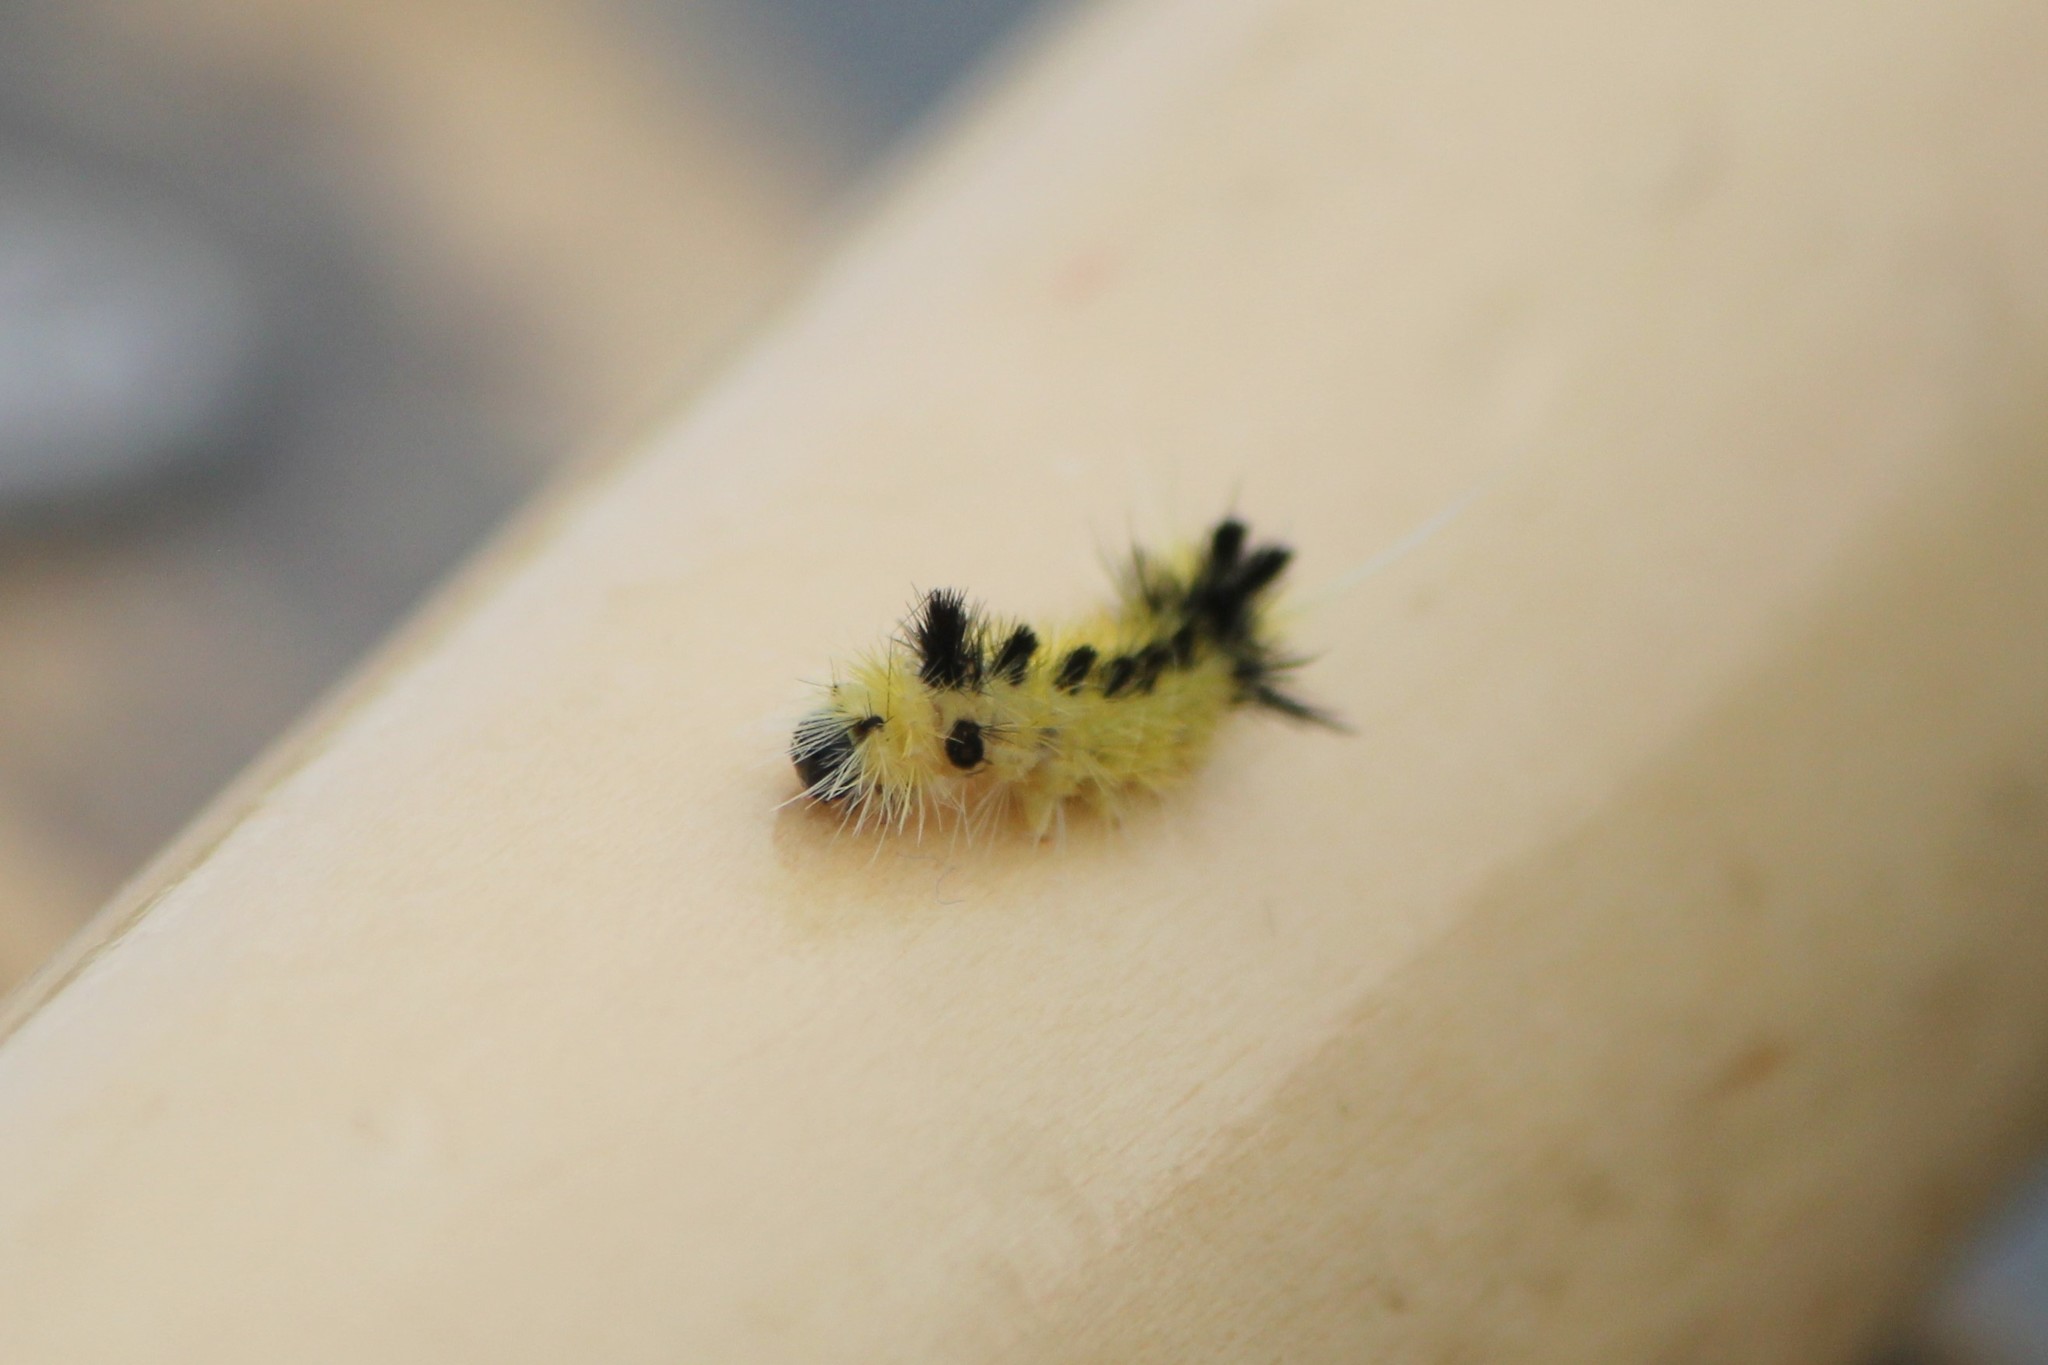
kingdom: Animalia
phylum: Arthropoda
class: Insecta
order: Lepidoptera
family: Erebidae
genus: Lophocampa
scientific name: Lophocampa maculata
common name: Spotted tussock moth
